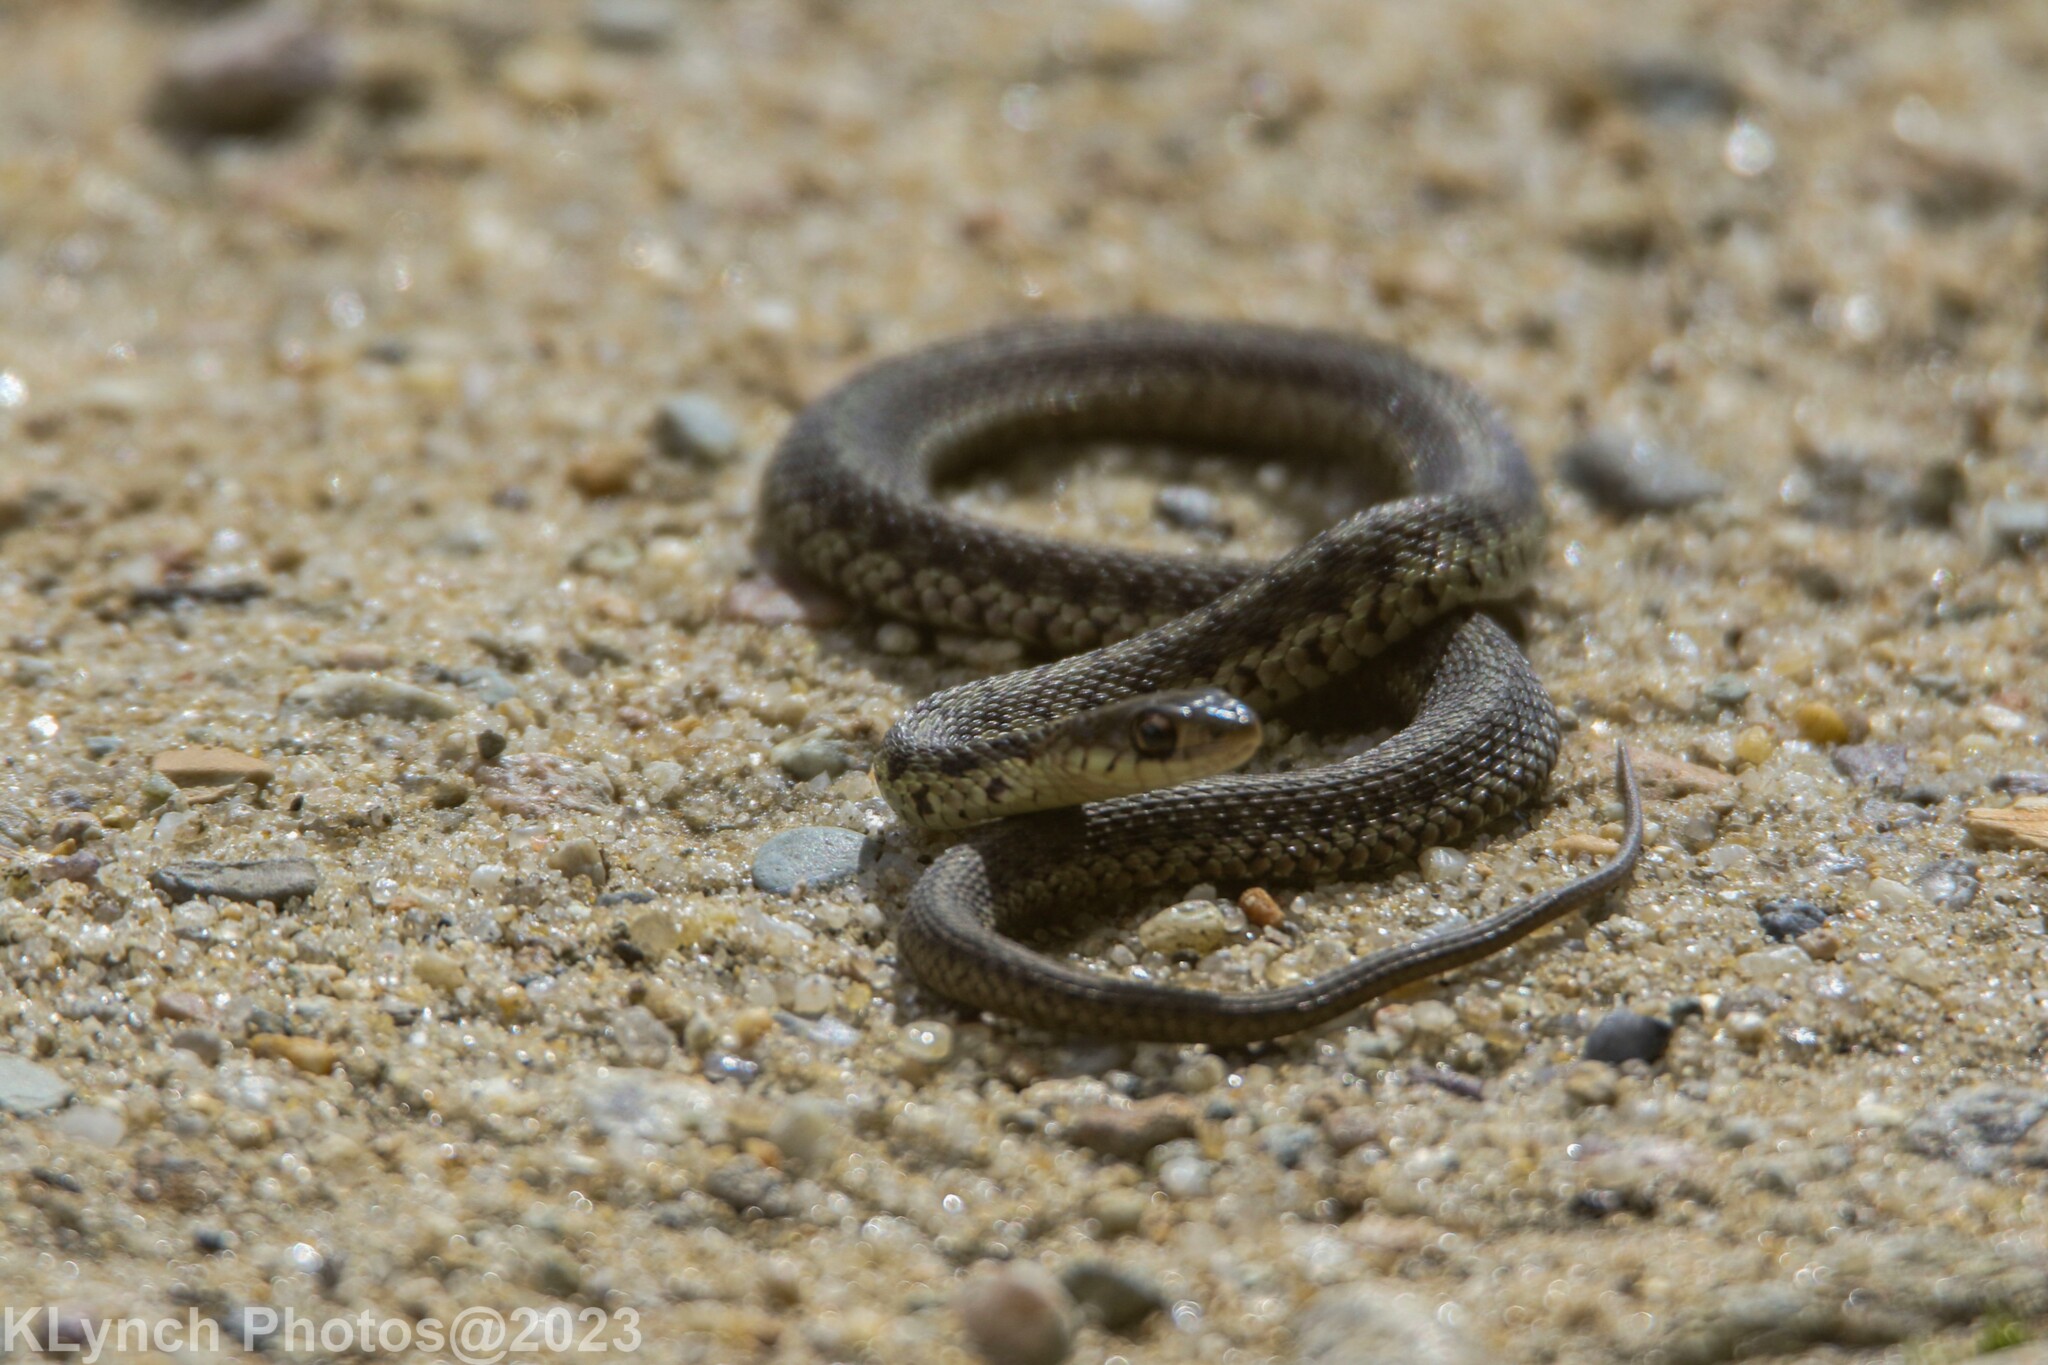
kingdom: Animalia
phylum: Chordata
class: Squamata
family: Colubridae
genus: Thamnophis
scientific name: Thamnophis sirtalis
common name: Common garter snake
